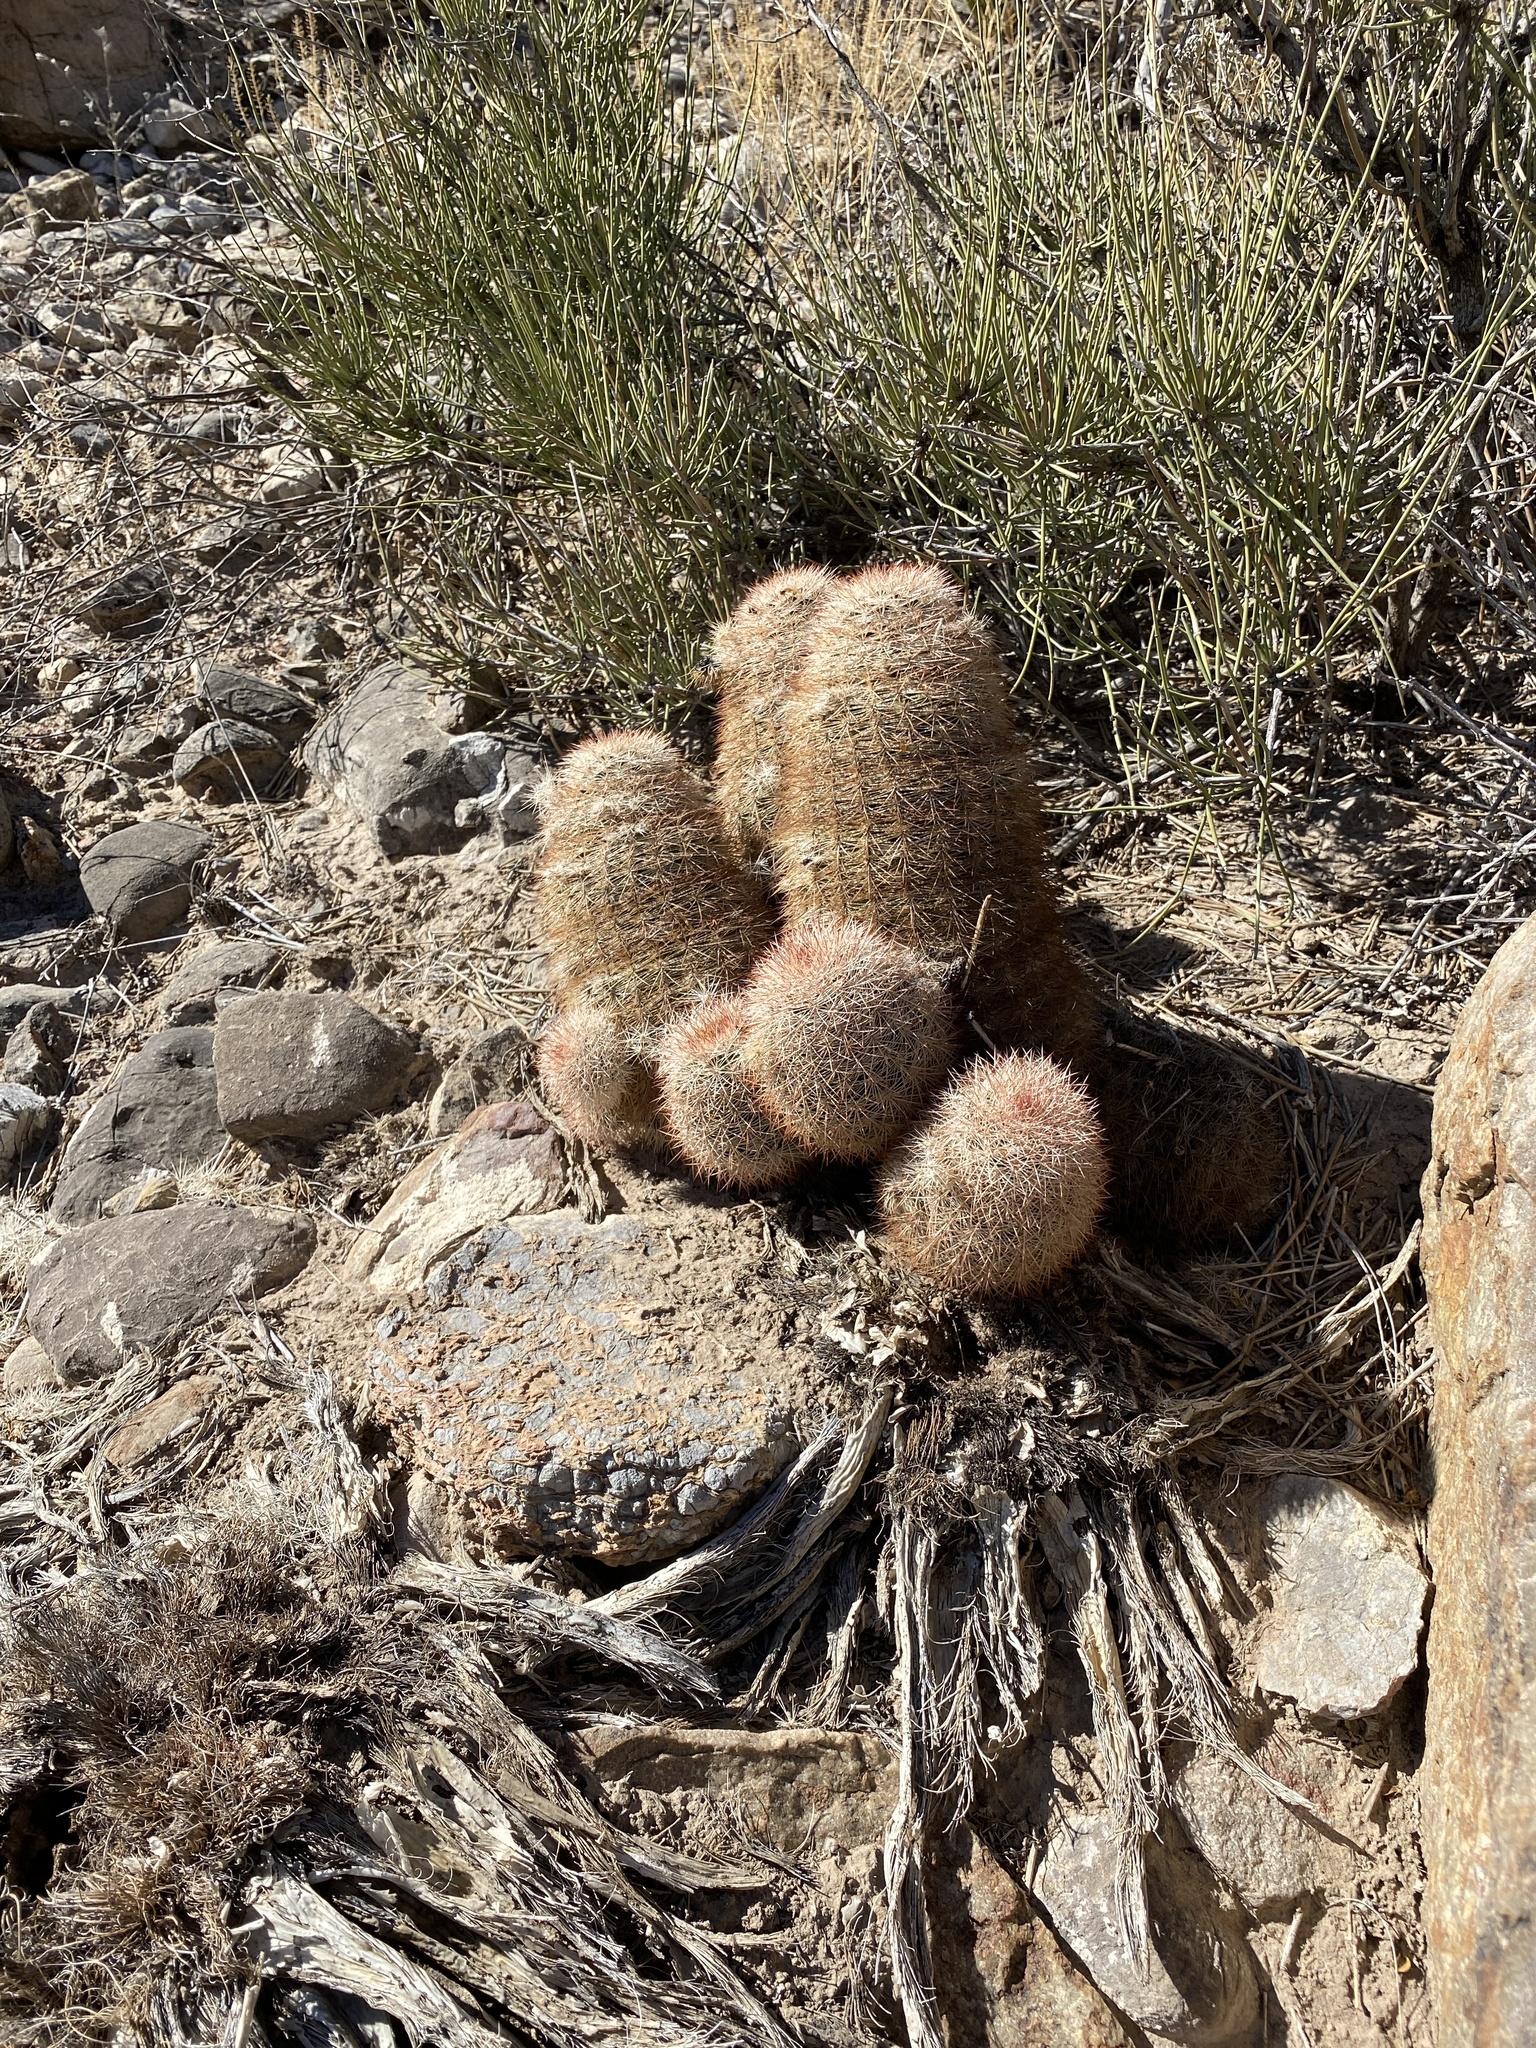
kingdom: Plantae
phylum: Tracheophyta
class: Magnoliopsida
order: Caryophyllales
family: Cactaceae
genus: Echinocereus
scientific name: Echinocereus dasyacanthus
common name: Spiny hedgehog cactus
